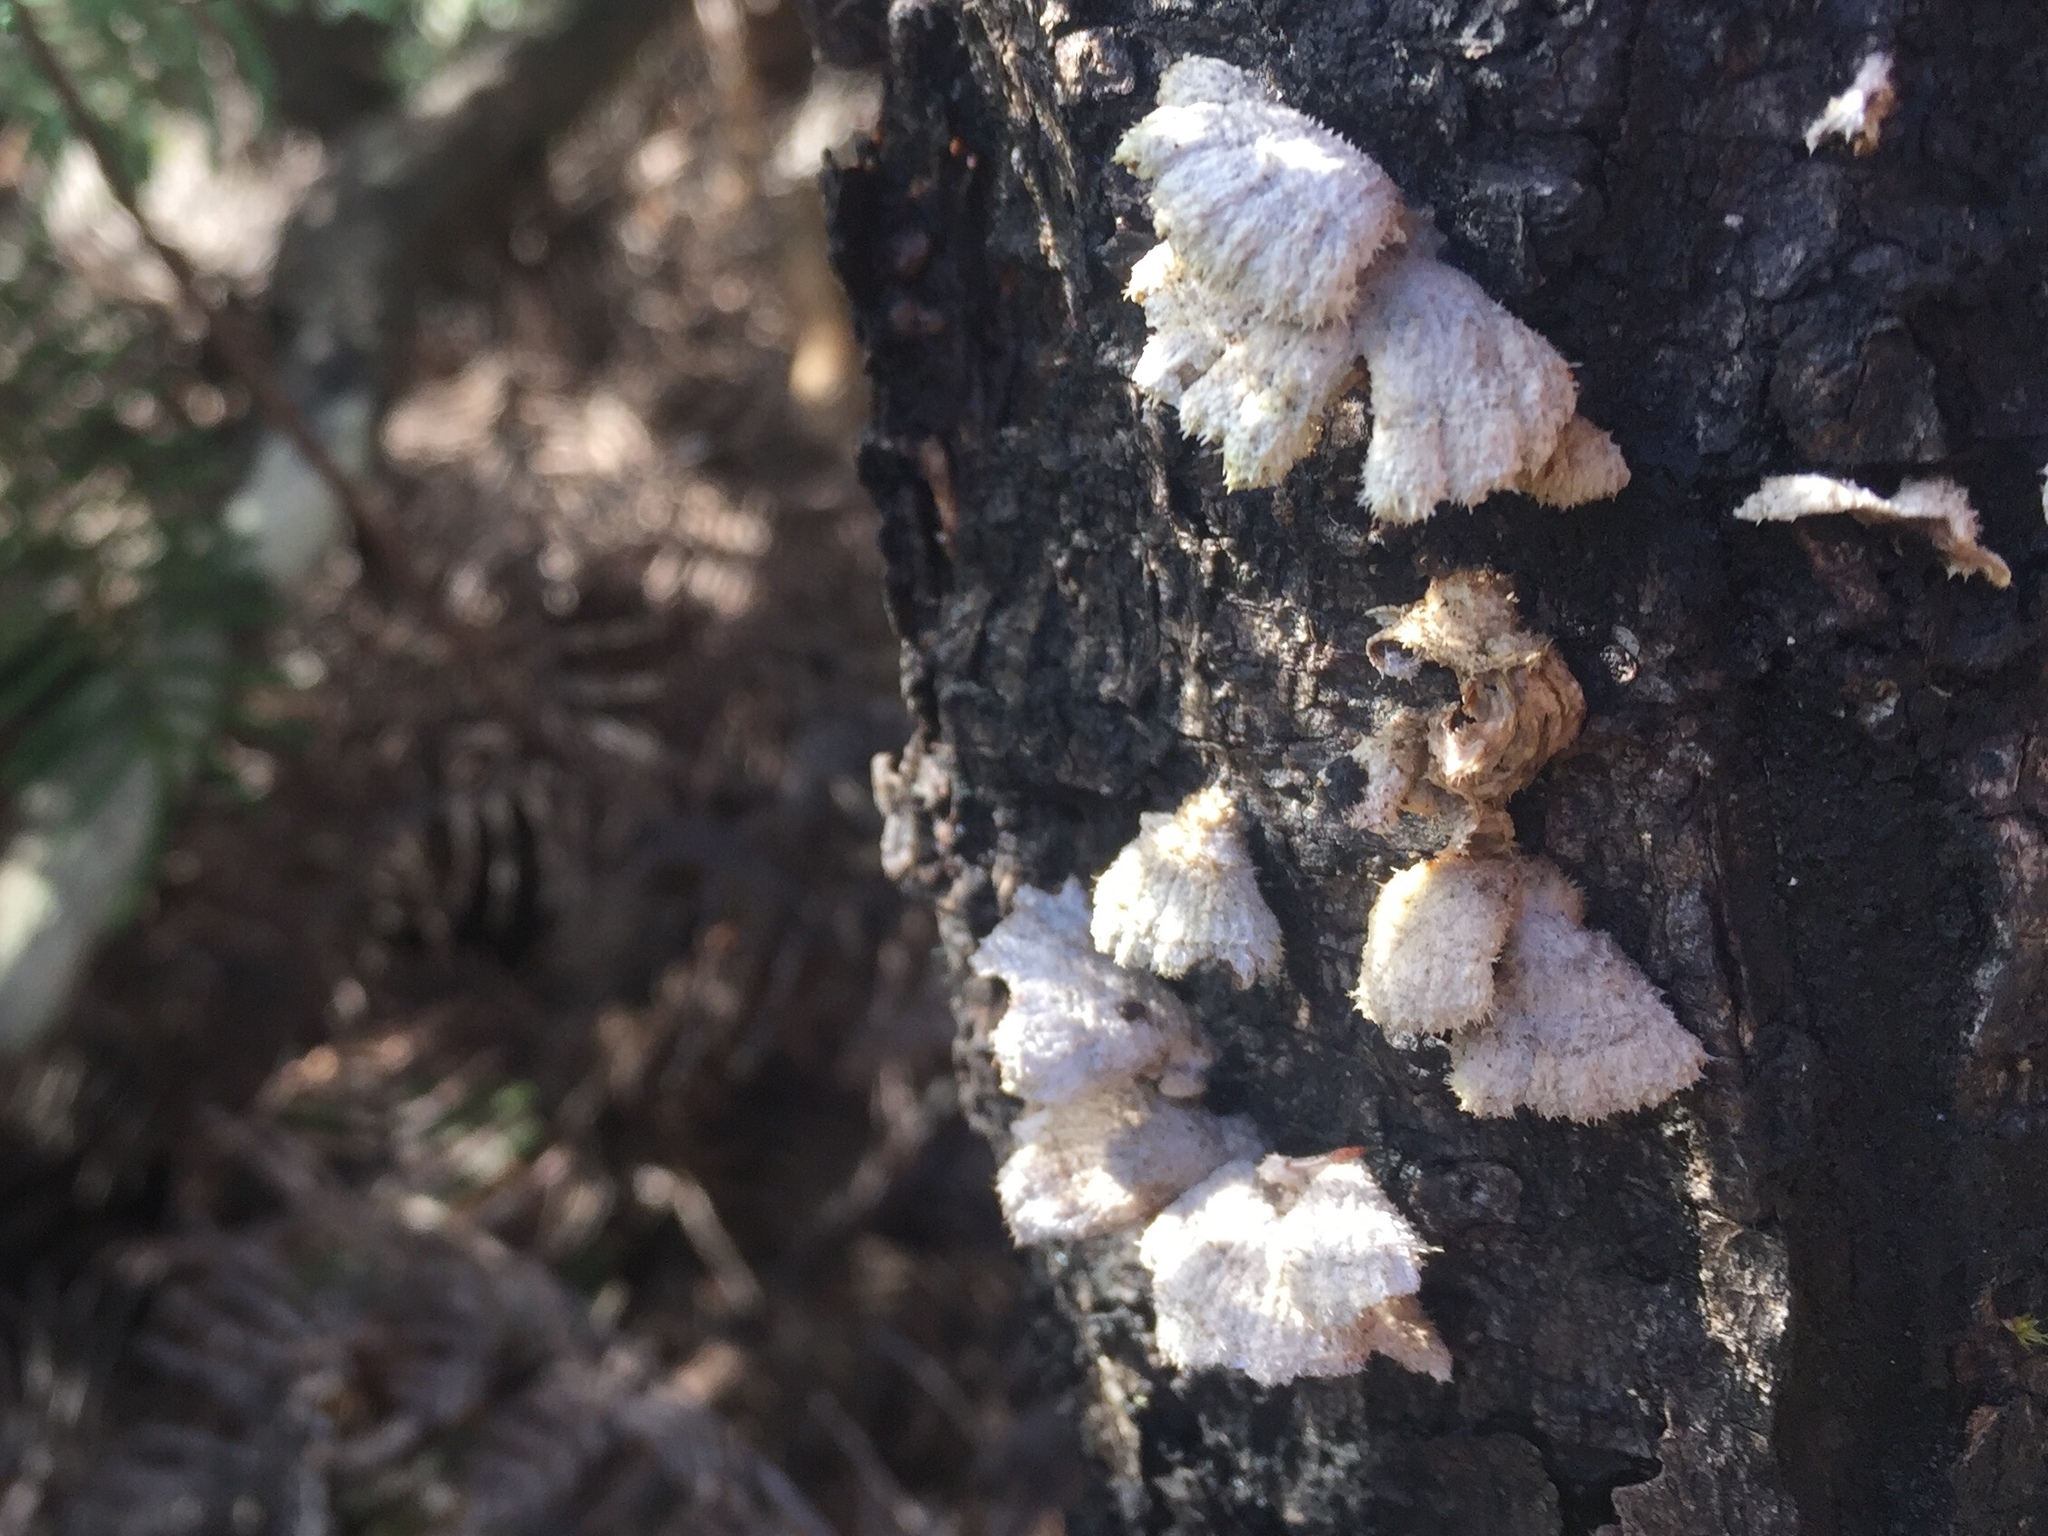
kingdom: Fungi
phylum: Basidiomycota
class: Agaricomycetes
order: Agaricales
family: Schizophyllaceae
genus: Schizophyllum
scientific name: Schizophyllum commune
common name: Common porecrust
